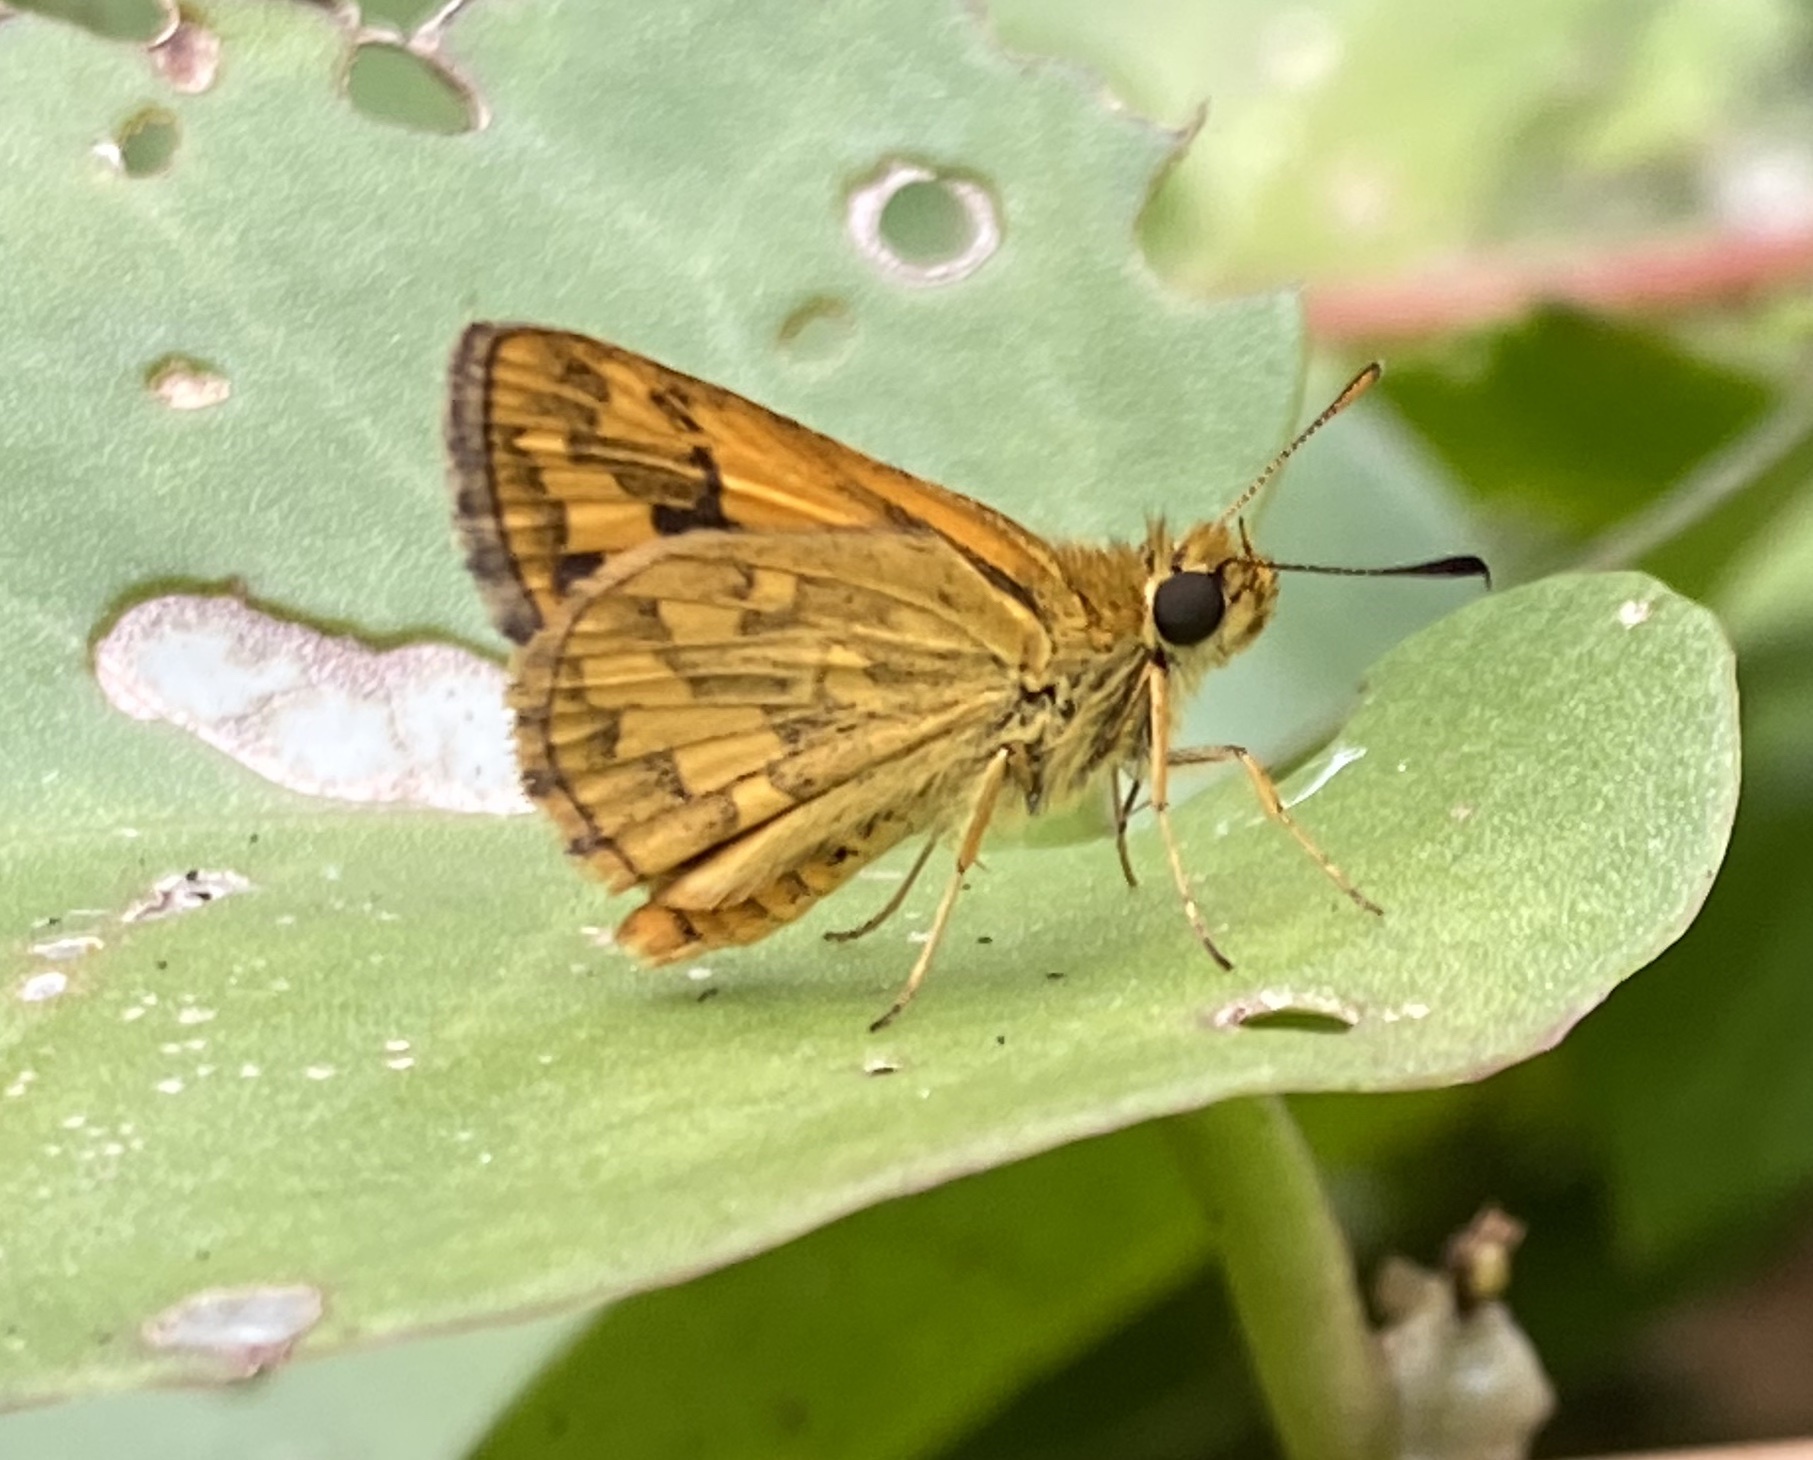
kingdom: Animalia
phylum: Arthropoda
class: Insecta
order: Lepidoptera
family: Hesperiidae
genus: Suniana
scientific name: Suniana sunias
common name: Wide-brand grass-dart
